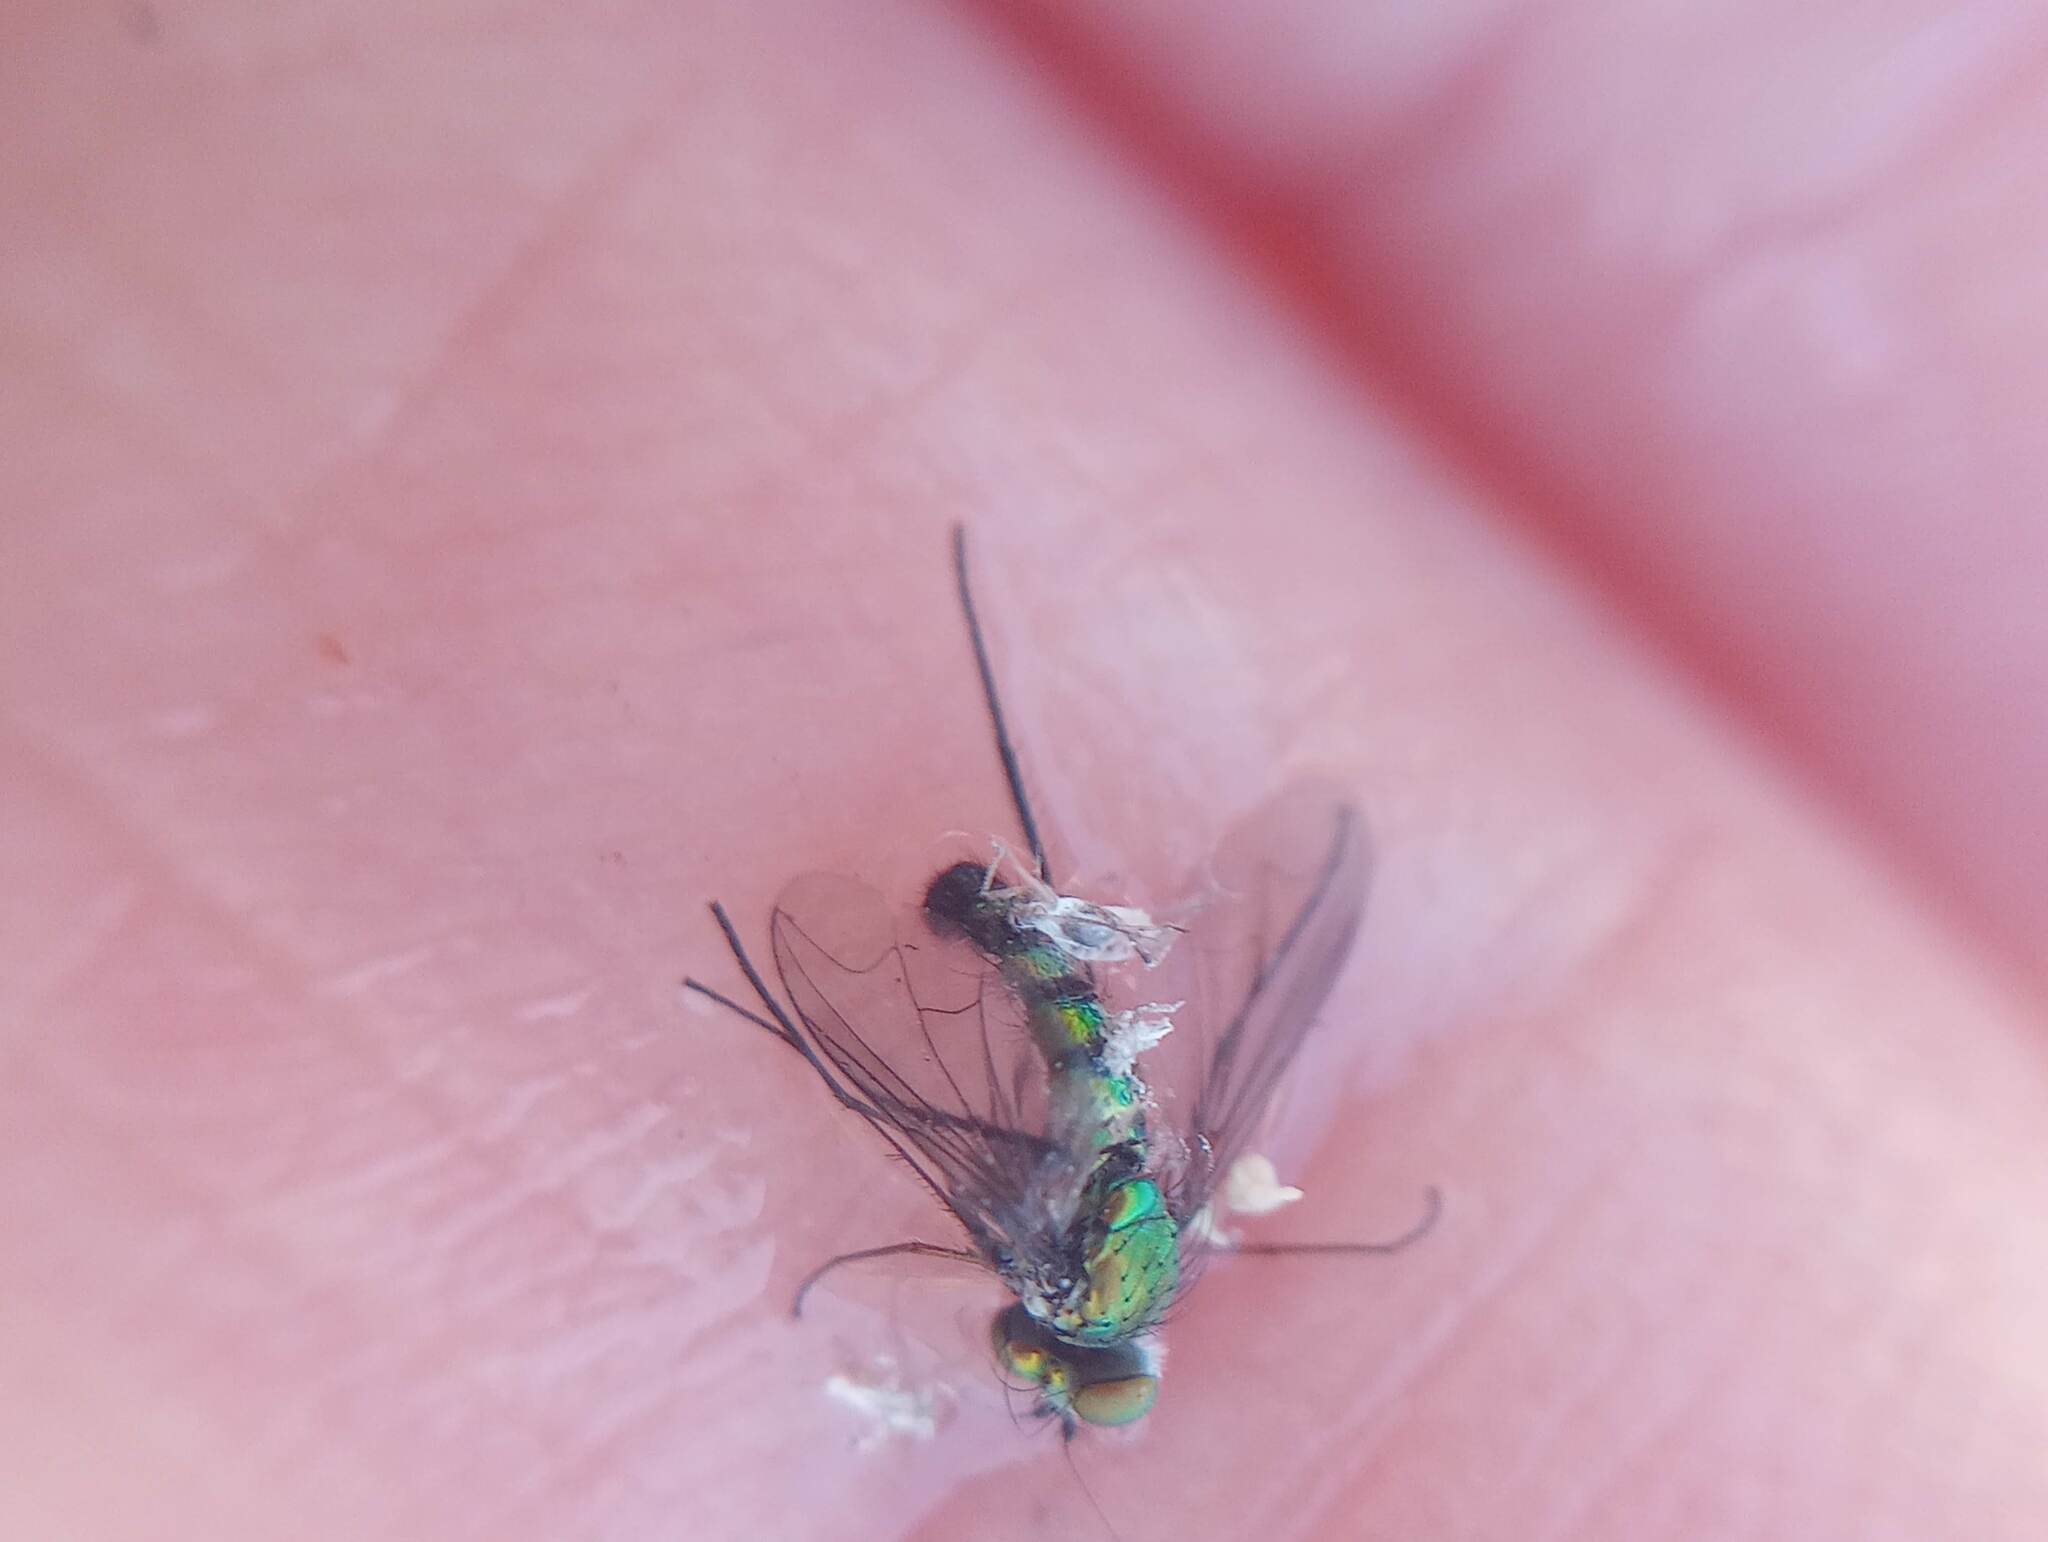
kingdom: Animalia
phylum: Arthropoda
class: Insecta
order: Diptera
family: Dolichopodidae
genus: Condylostylus
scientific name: Condylostylus longicornis
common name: Long-legged fly
